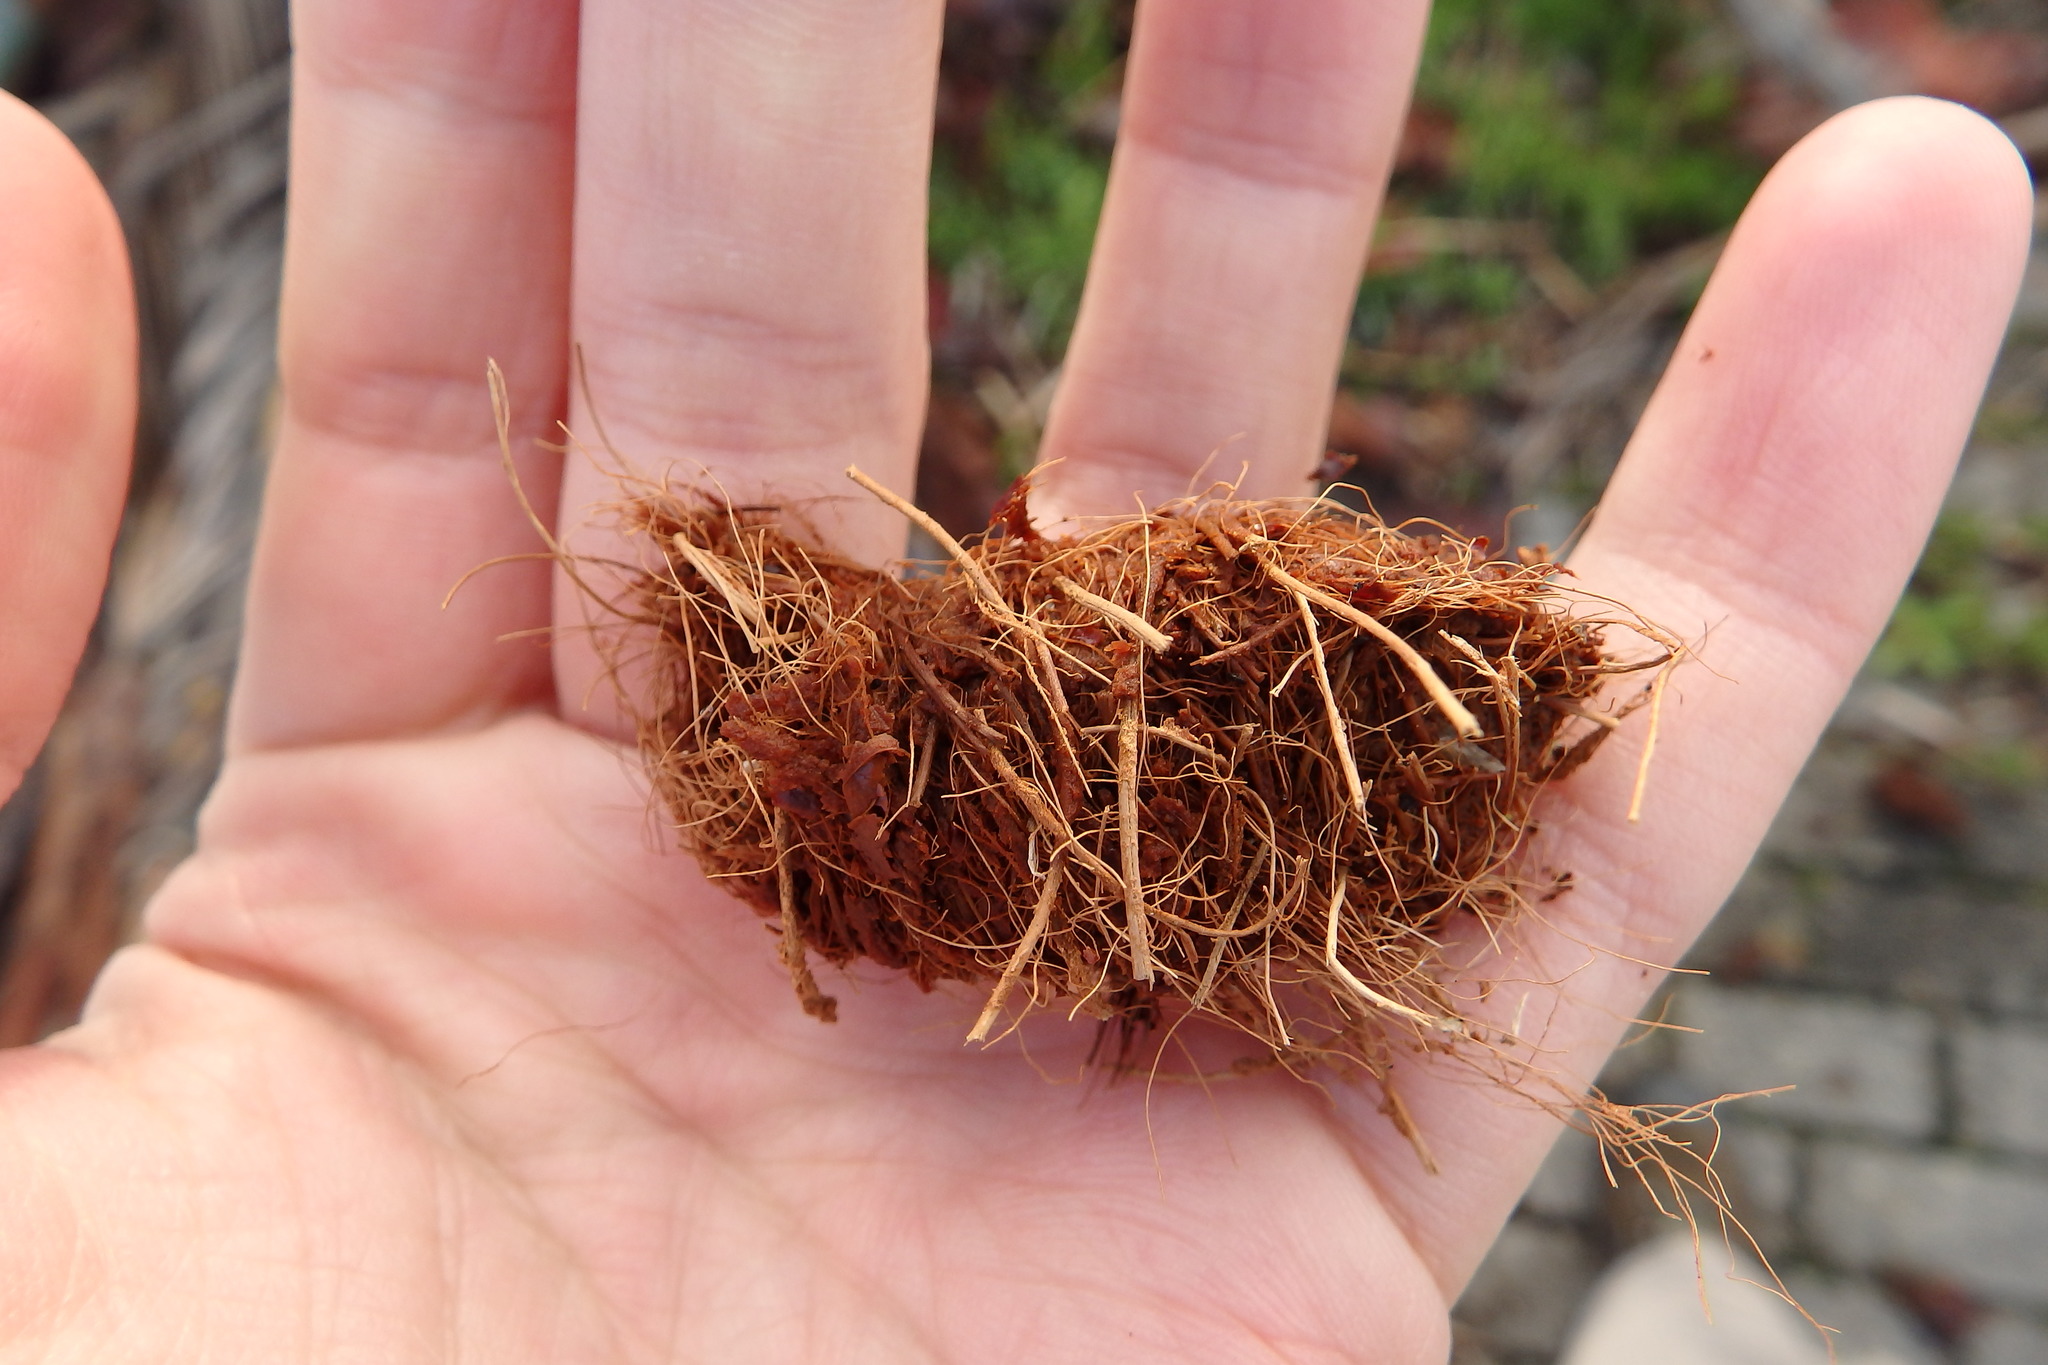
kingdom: Animalia
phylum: Arthropoda
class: Insecta
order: Coleoptera
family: Dryophthoridae
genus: Rhynchophorus
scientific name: Rhynchophorus ferrugineus
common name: Red palm weevil
